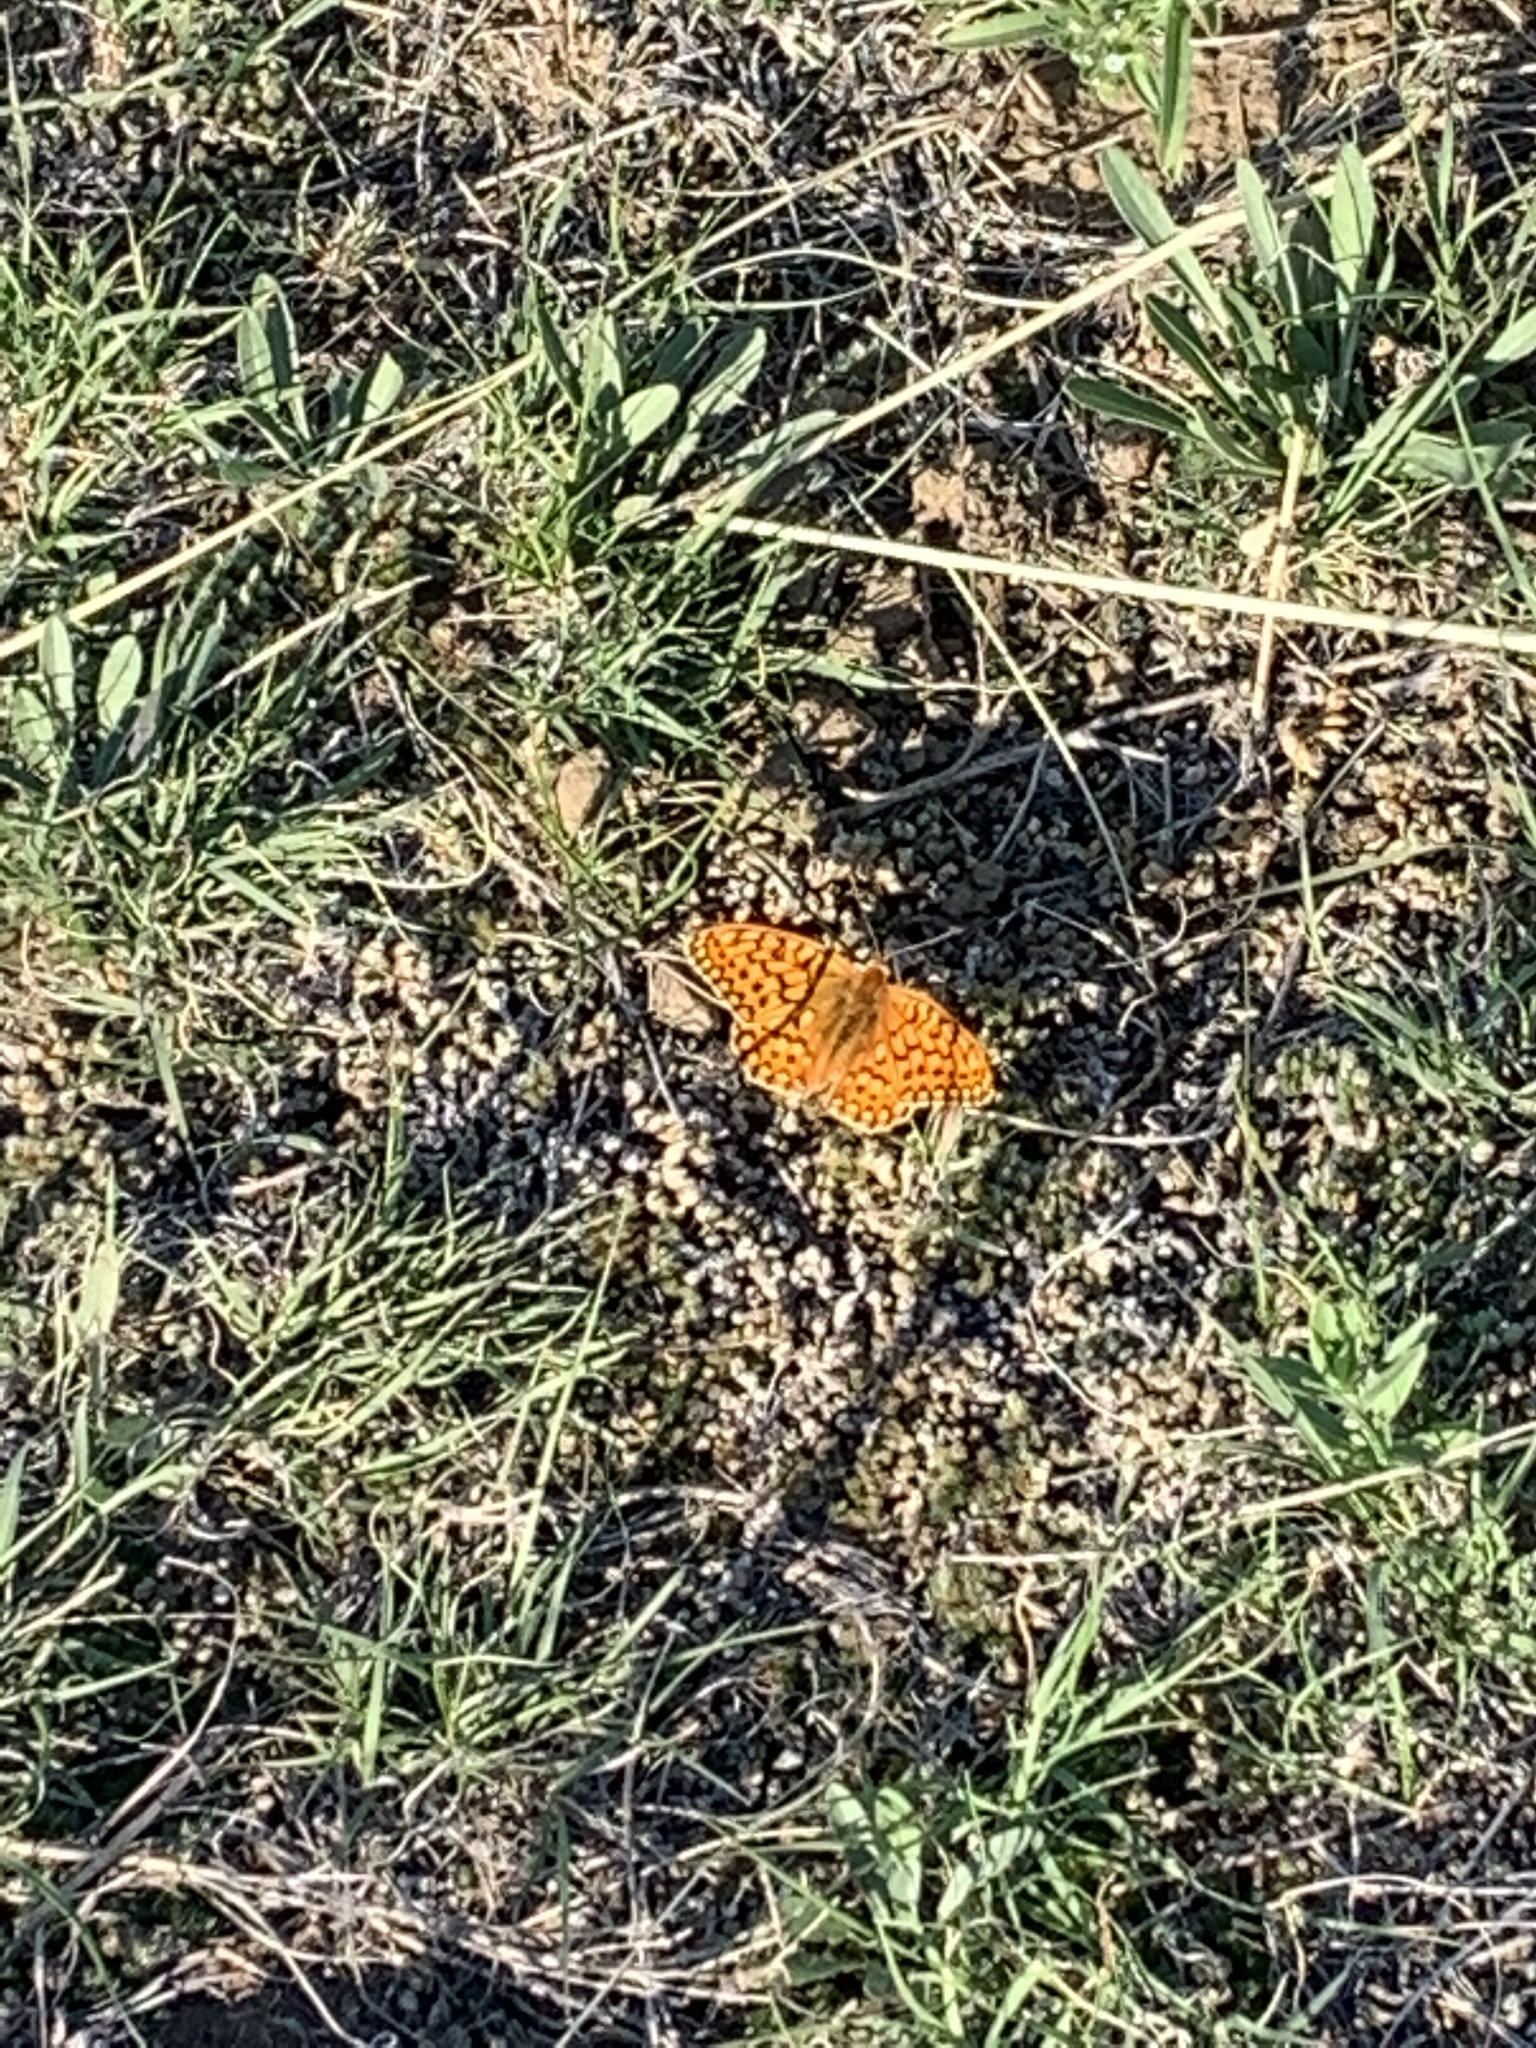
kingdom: Animalia
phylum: Arthropoda
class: Insecta
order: Lepidoptera
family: Nymphalidae
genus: Speyeria
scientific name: Speyeria callippe
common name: Callippe fritillary
